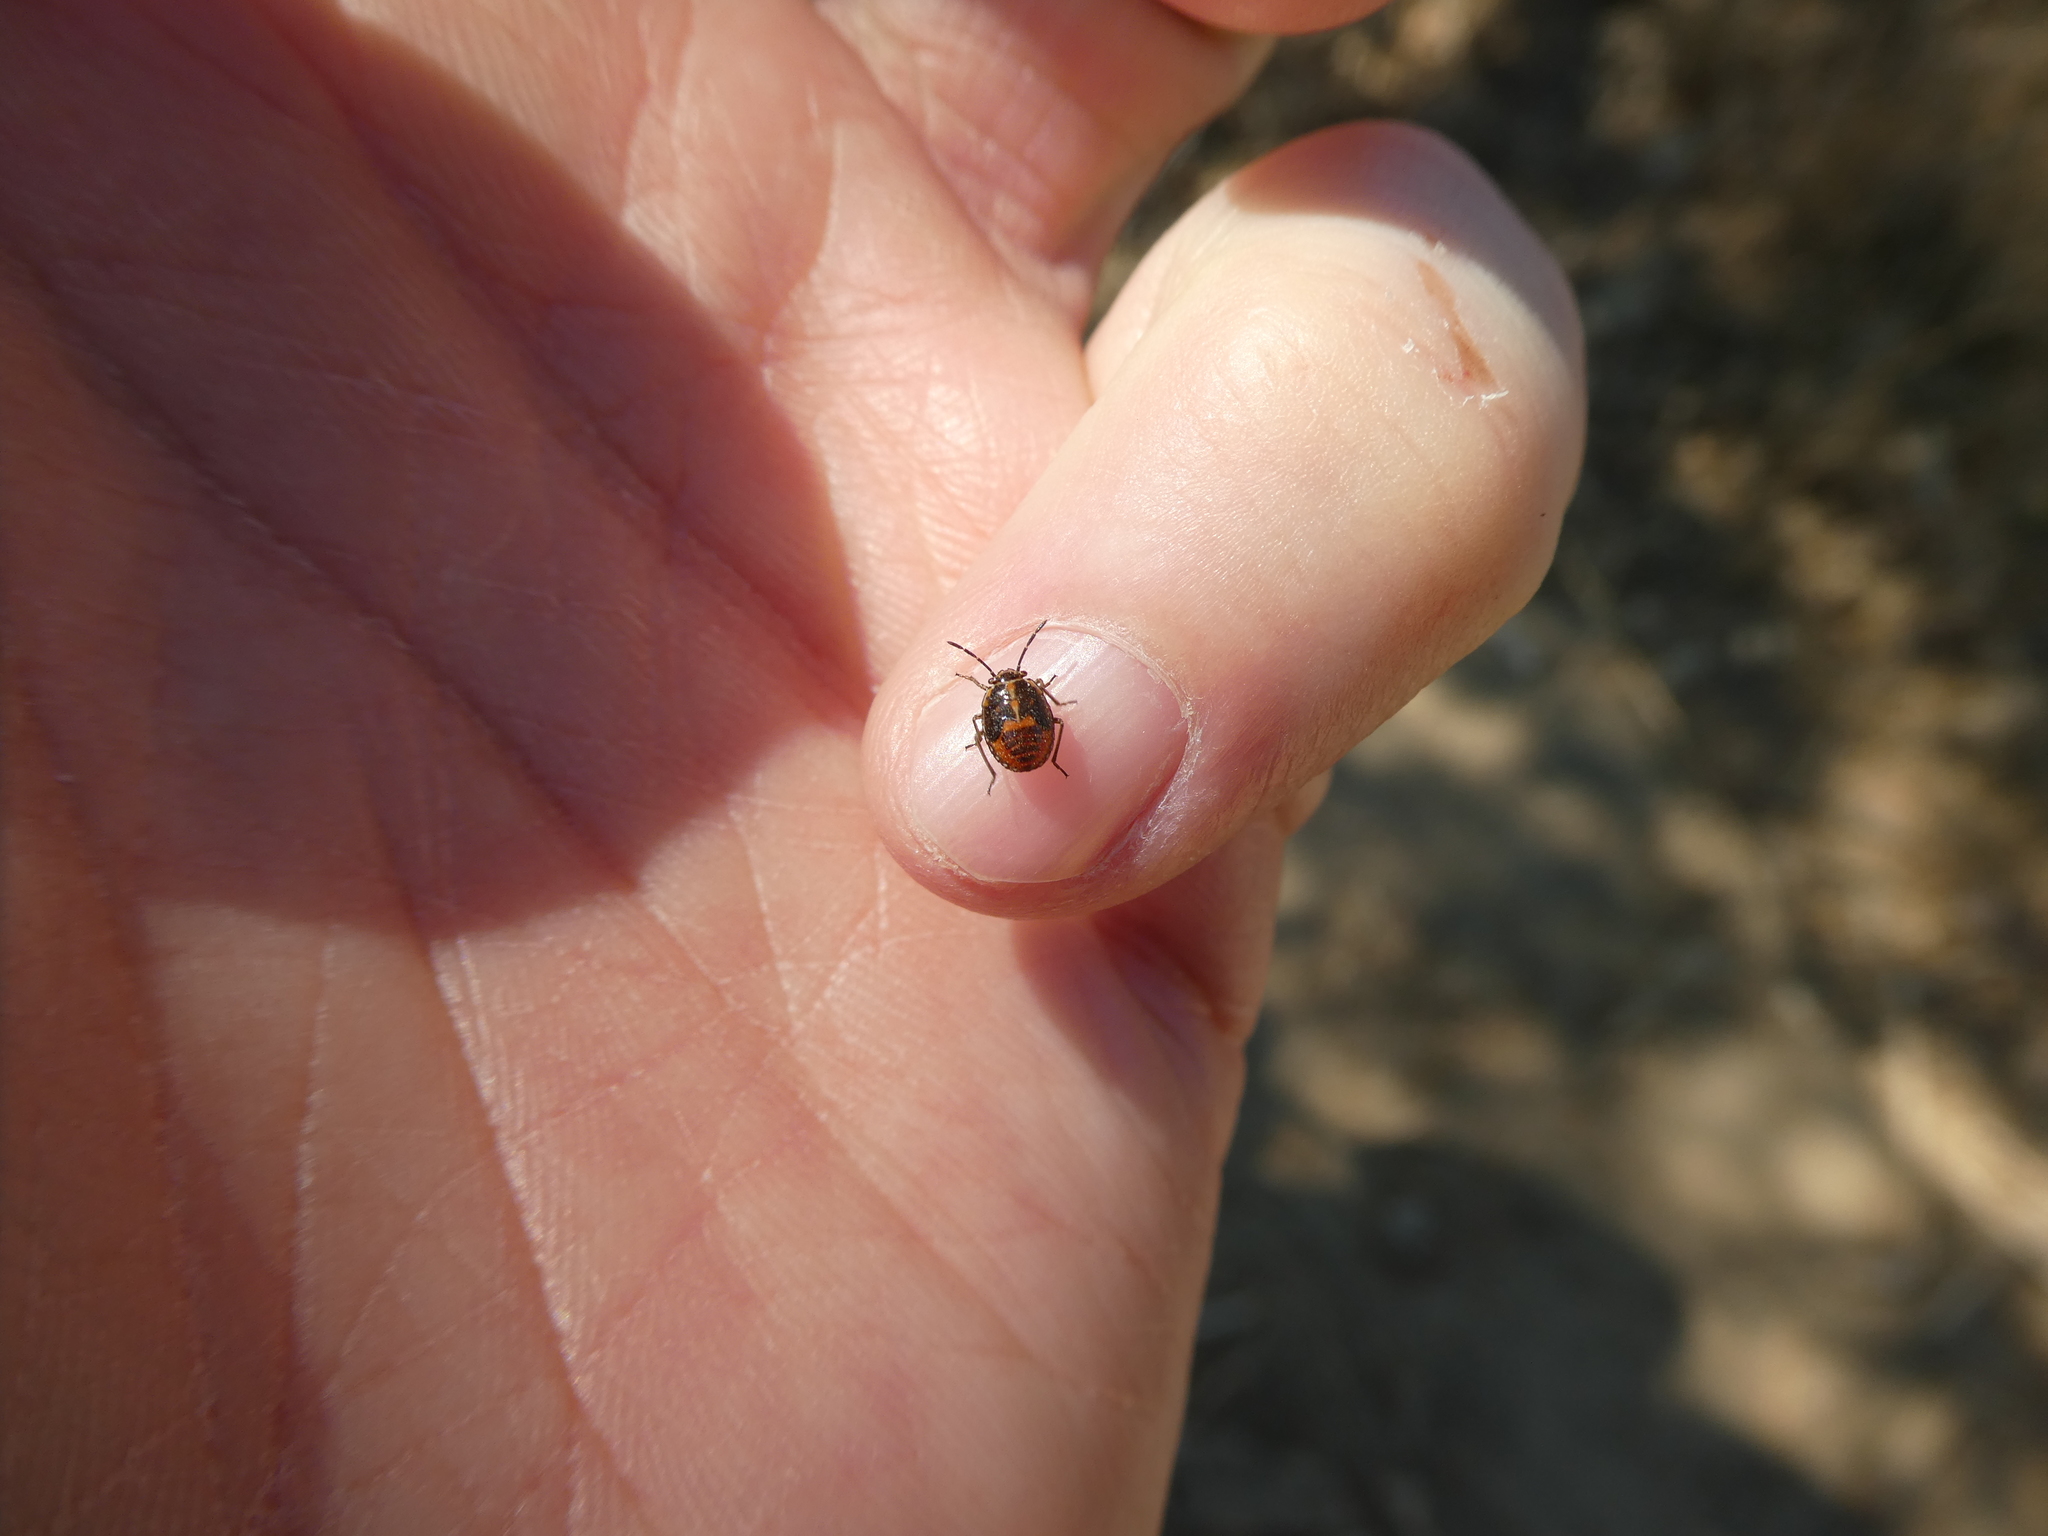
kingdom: Animalia
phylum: Arthropoda
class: Insecta
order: Hemiptera
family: Pentatomidae
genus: Bagrada
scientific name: Bagrada hilaris
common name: Bagrada bug
